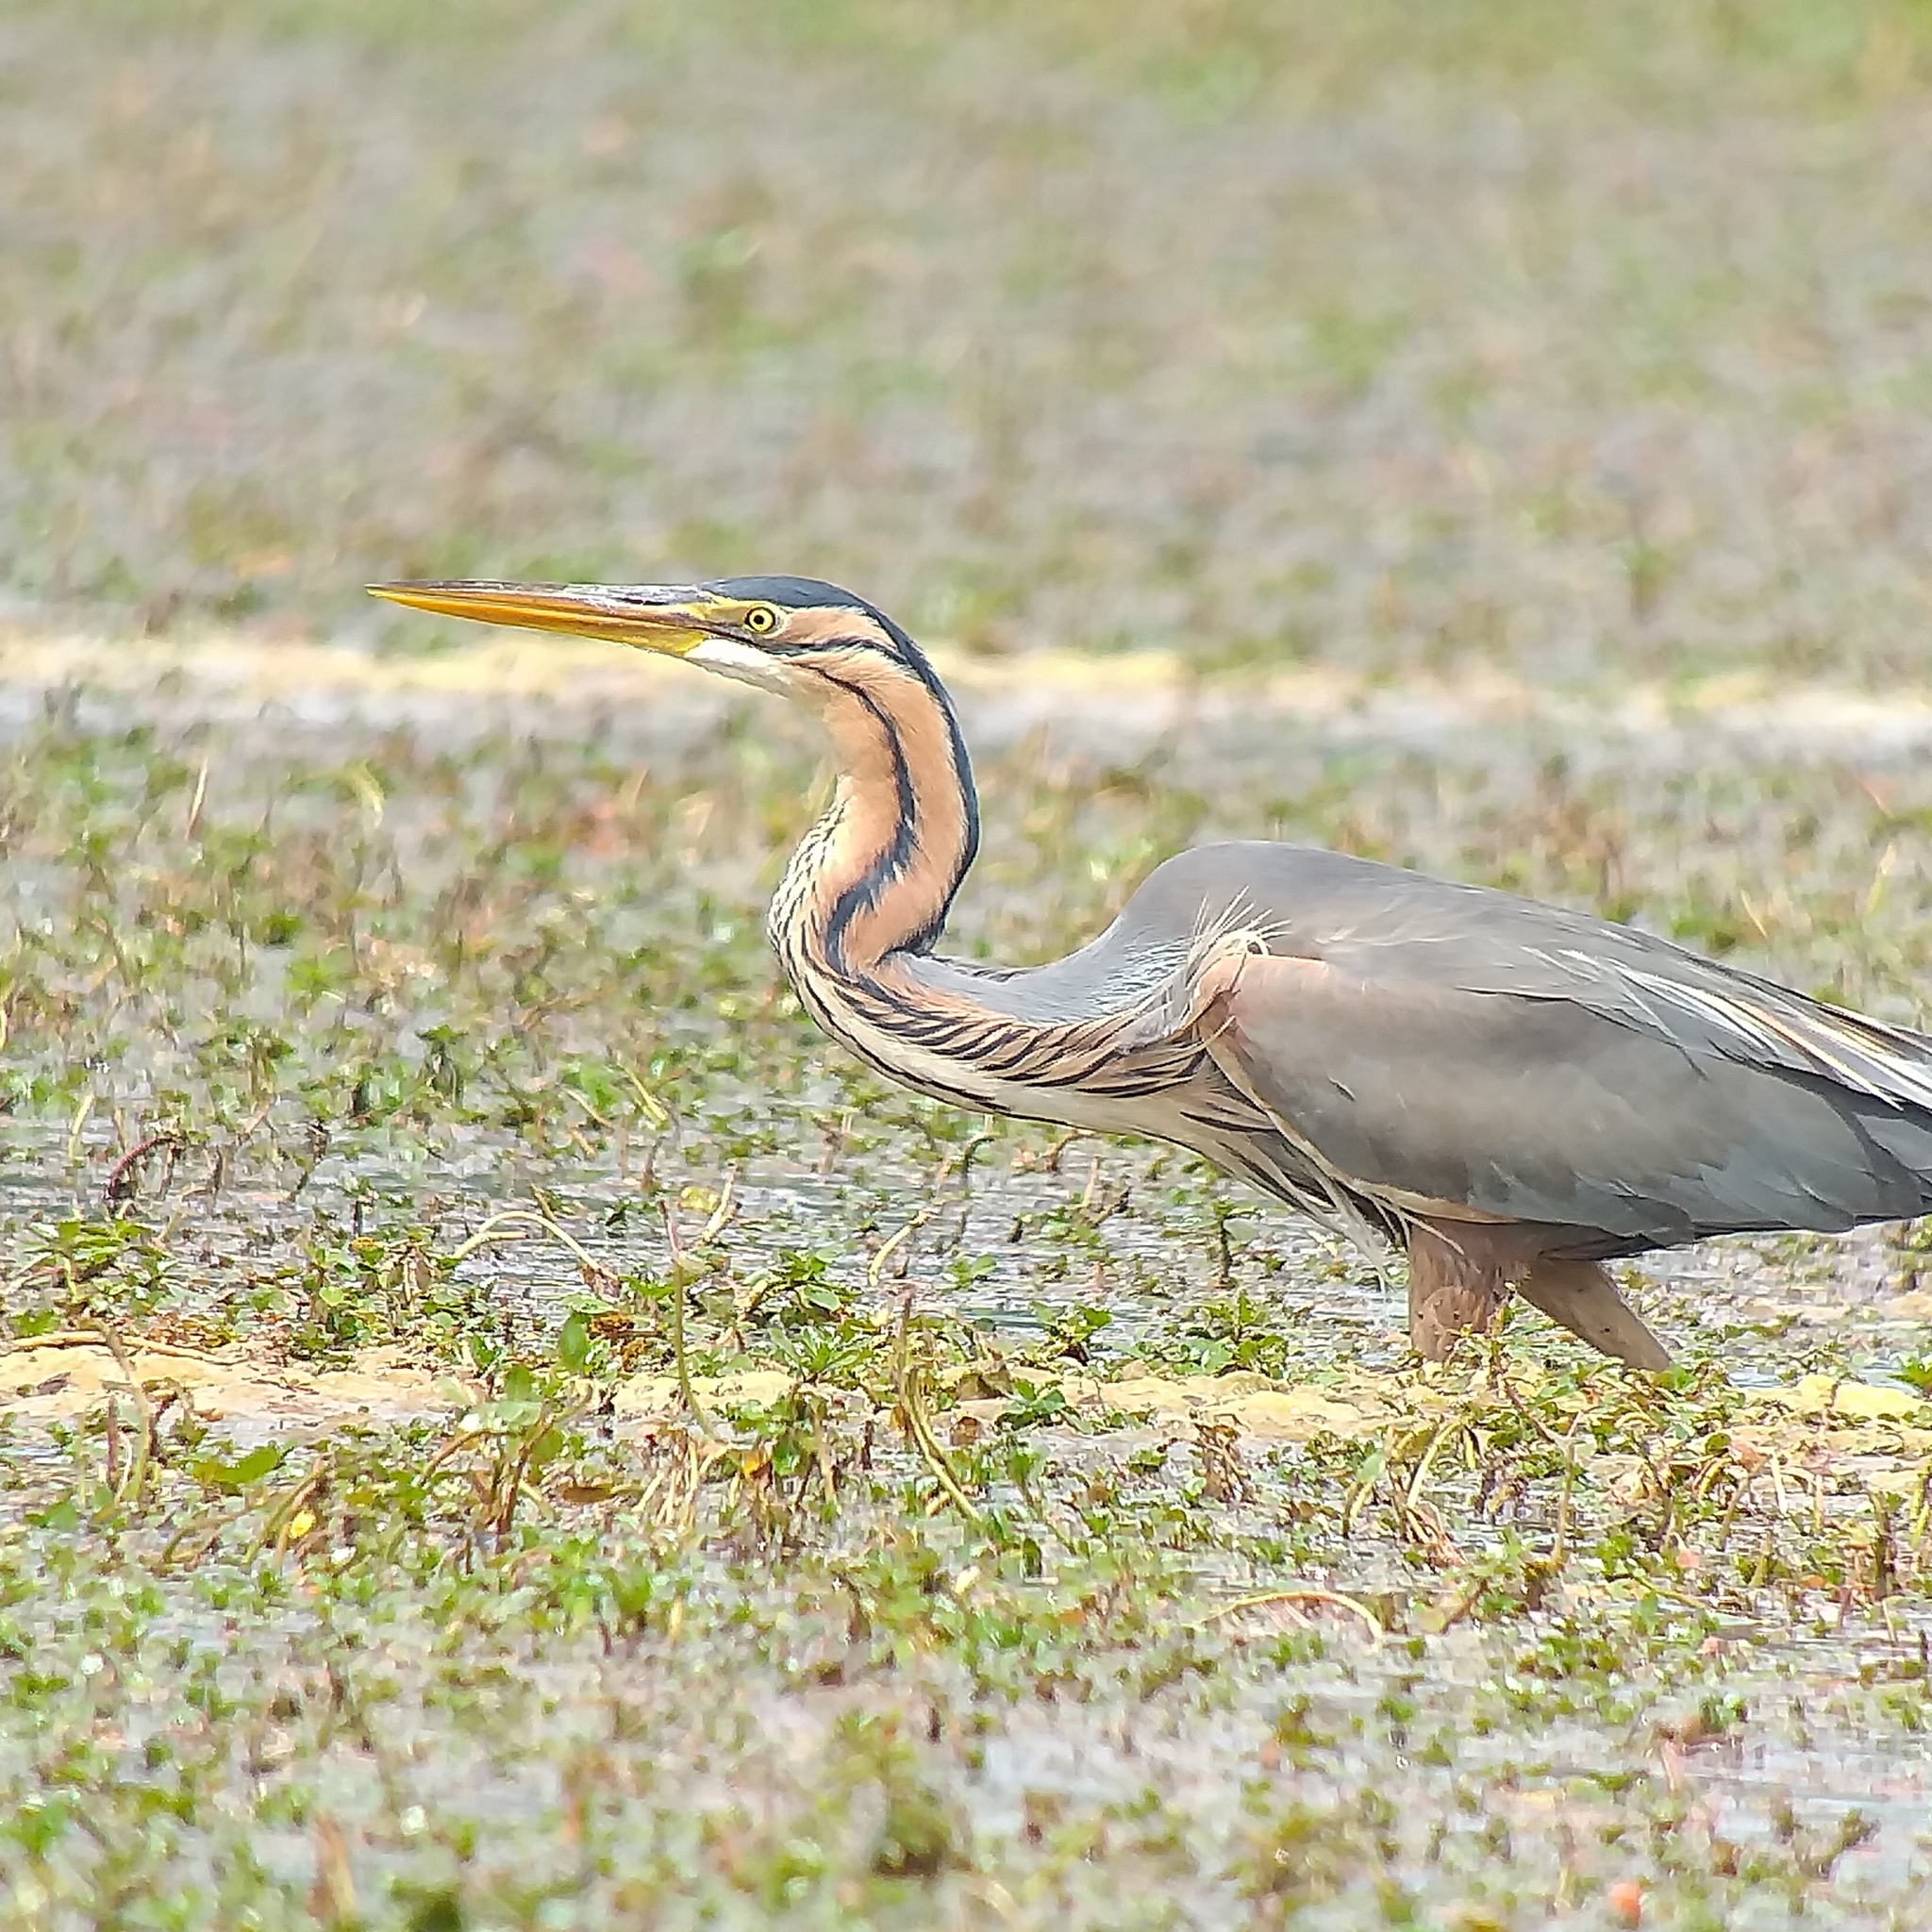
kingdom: Animalia
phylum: Chordata
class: Aves
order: Pelecaniformes
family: Ardeidae
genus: Ardea
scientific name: Ardea purpurea
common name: Purple heron
